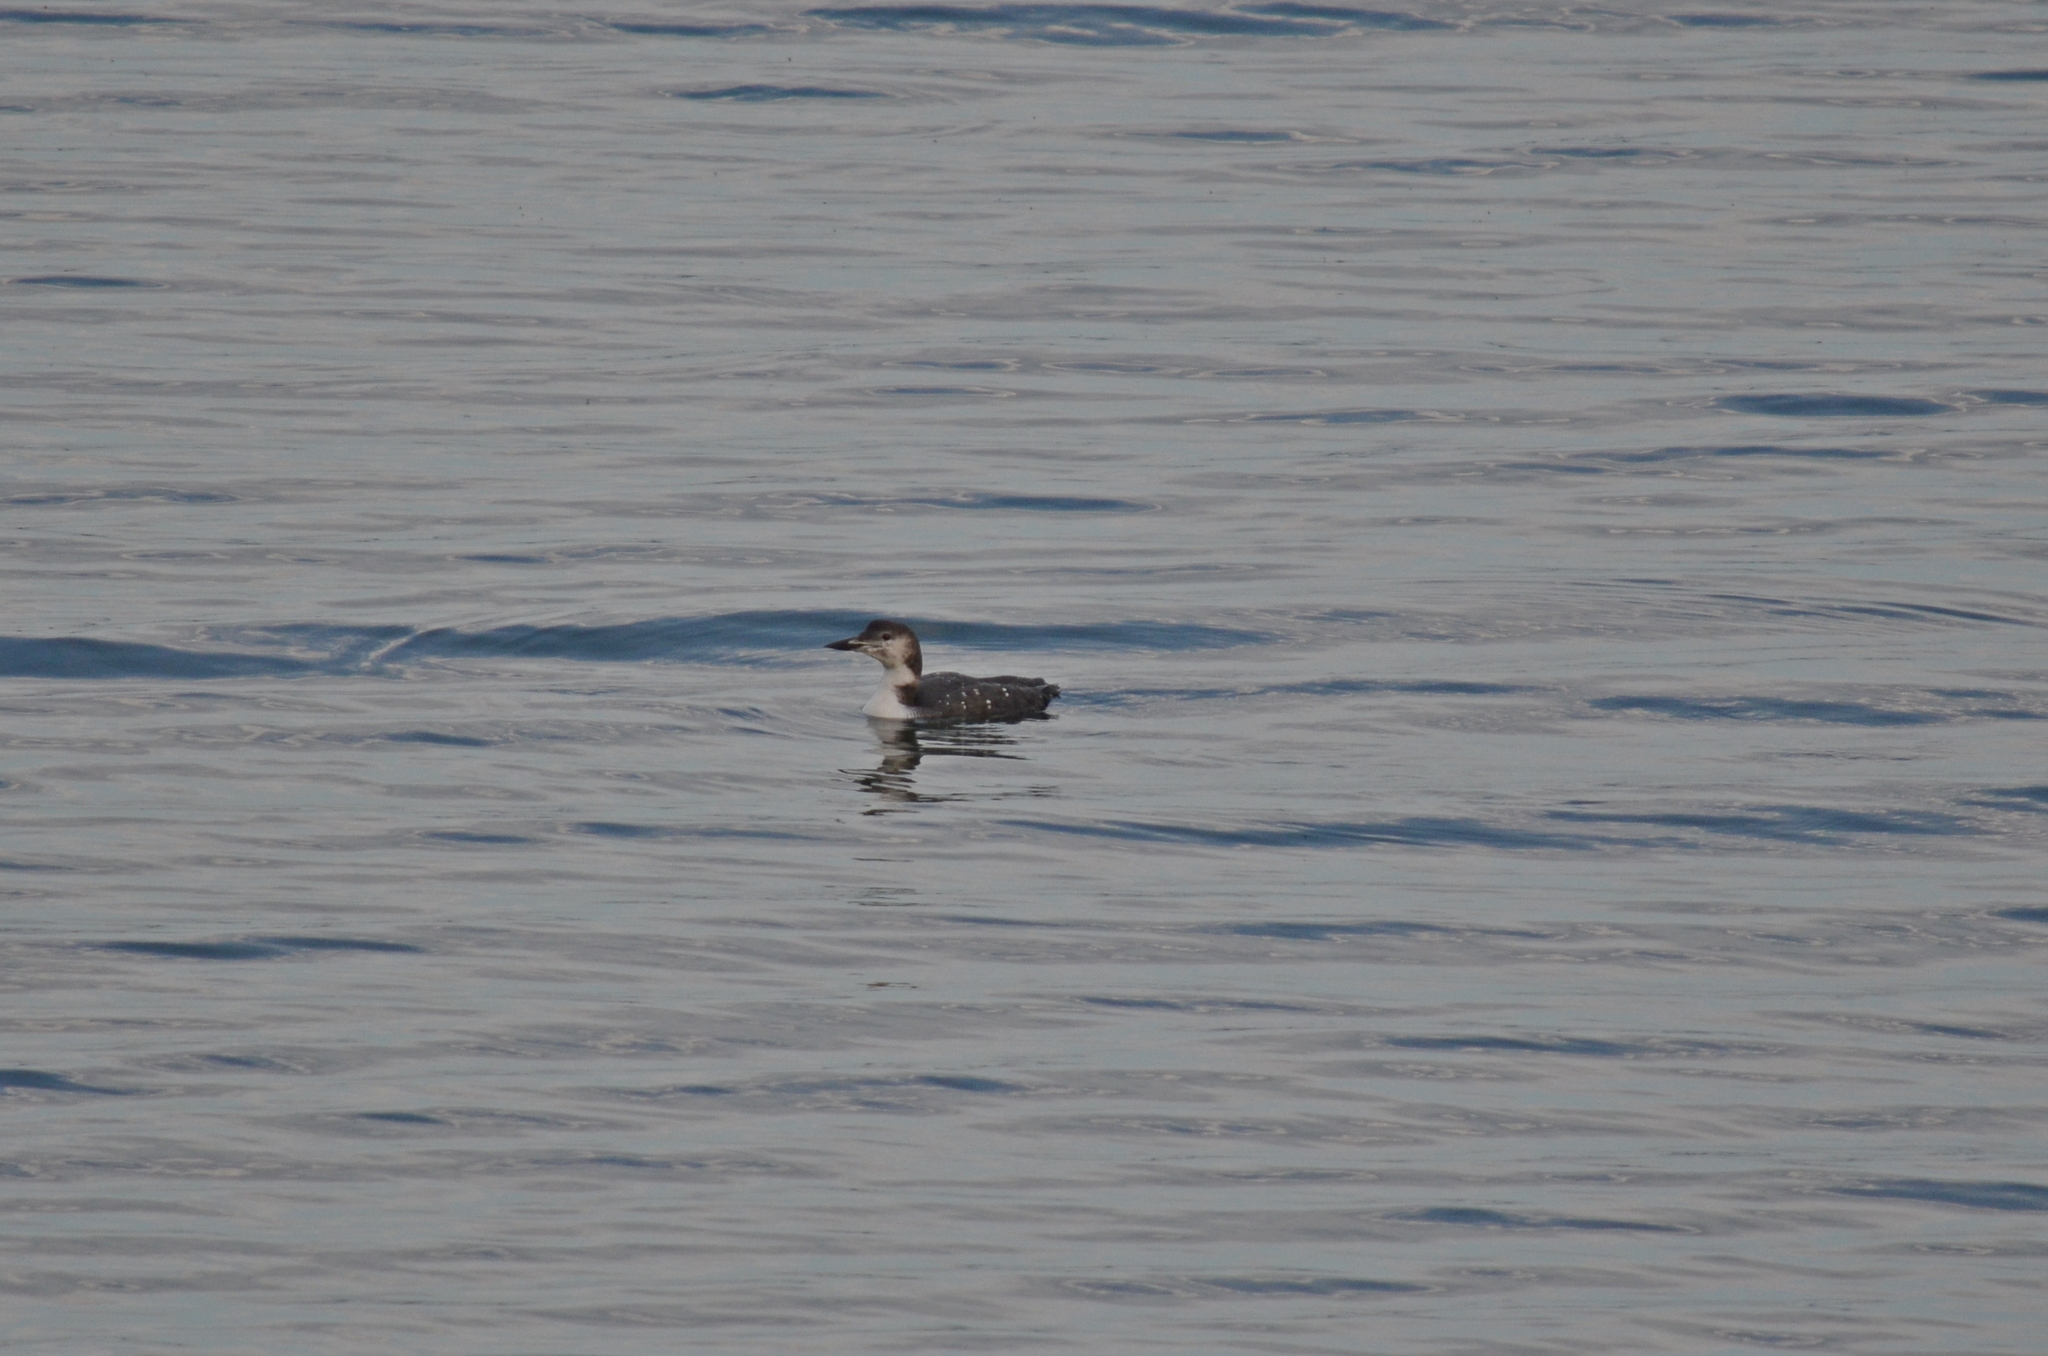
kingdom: Animalia
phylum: Chordata
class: Aves
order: Gaviiformes
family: Gaviidae
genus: Gavia
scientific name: Gavia immer
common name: Common loon
